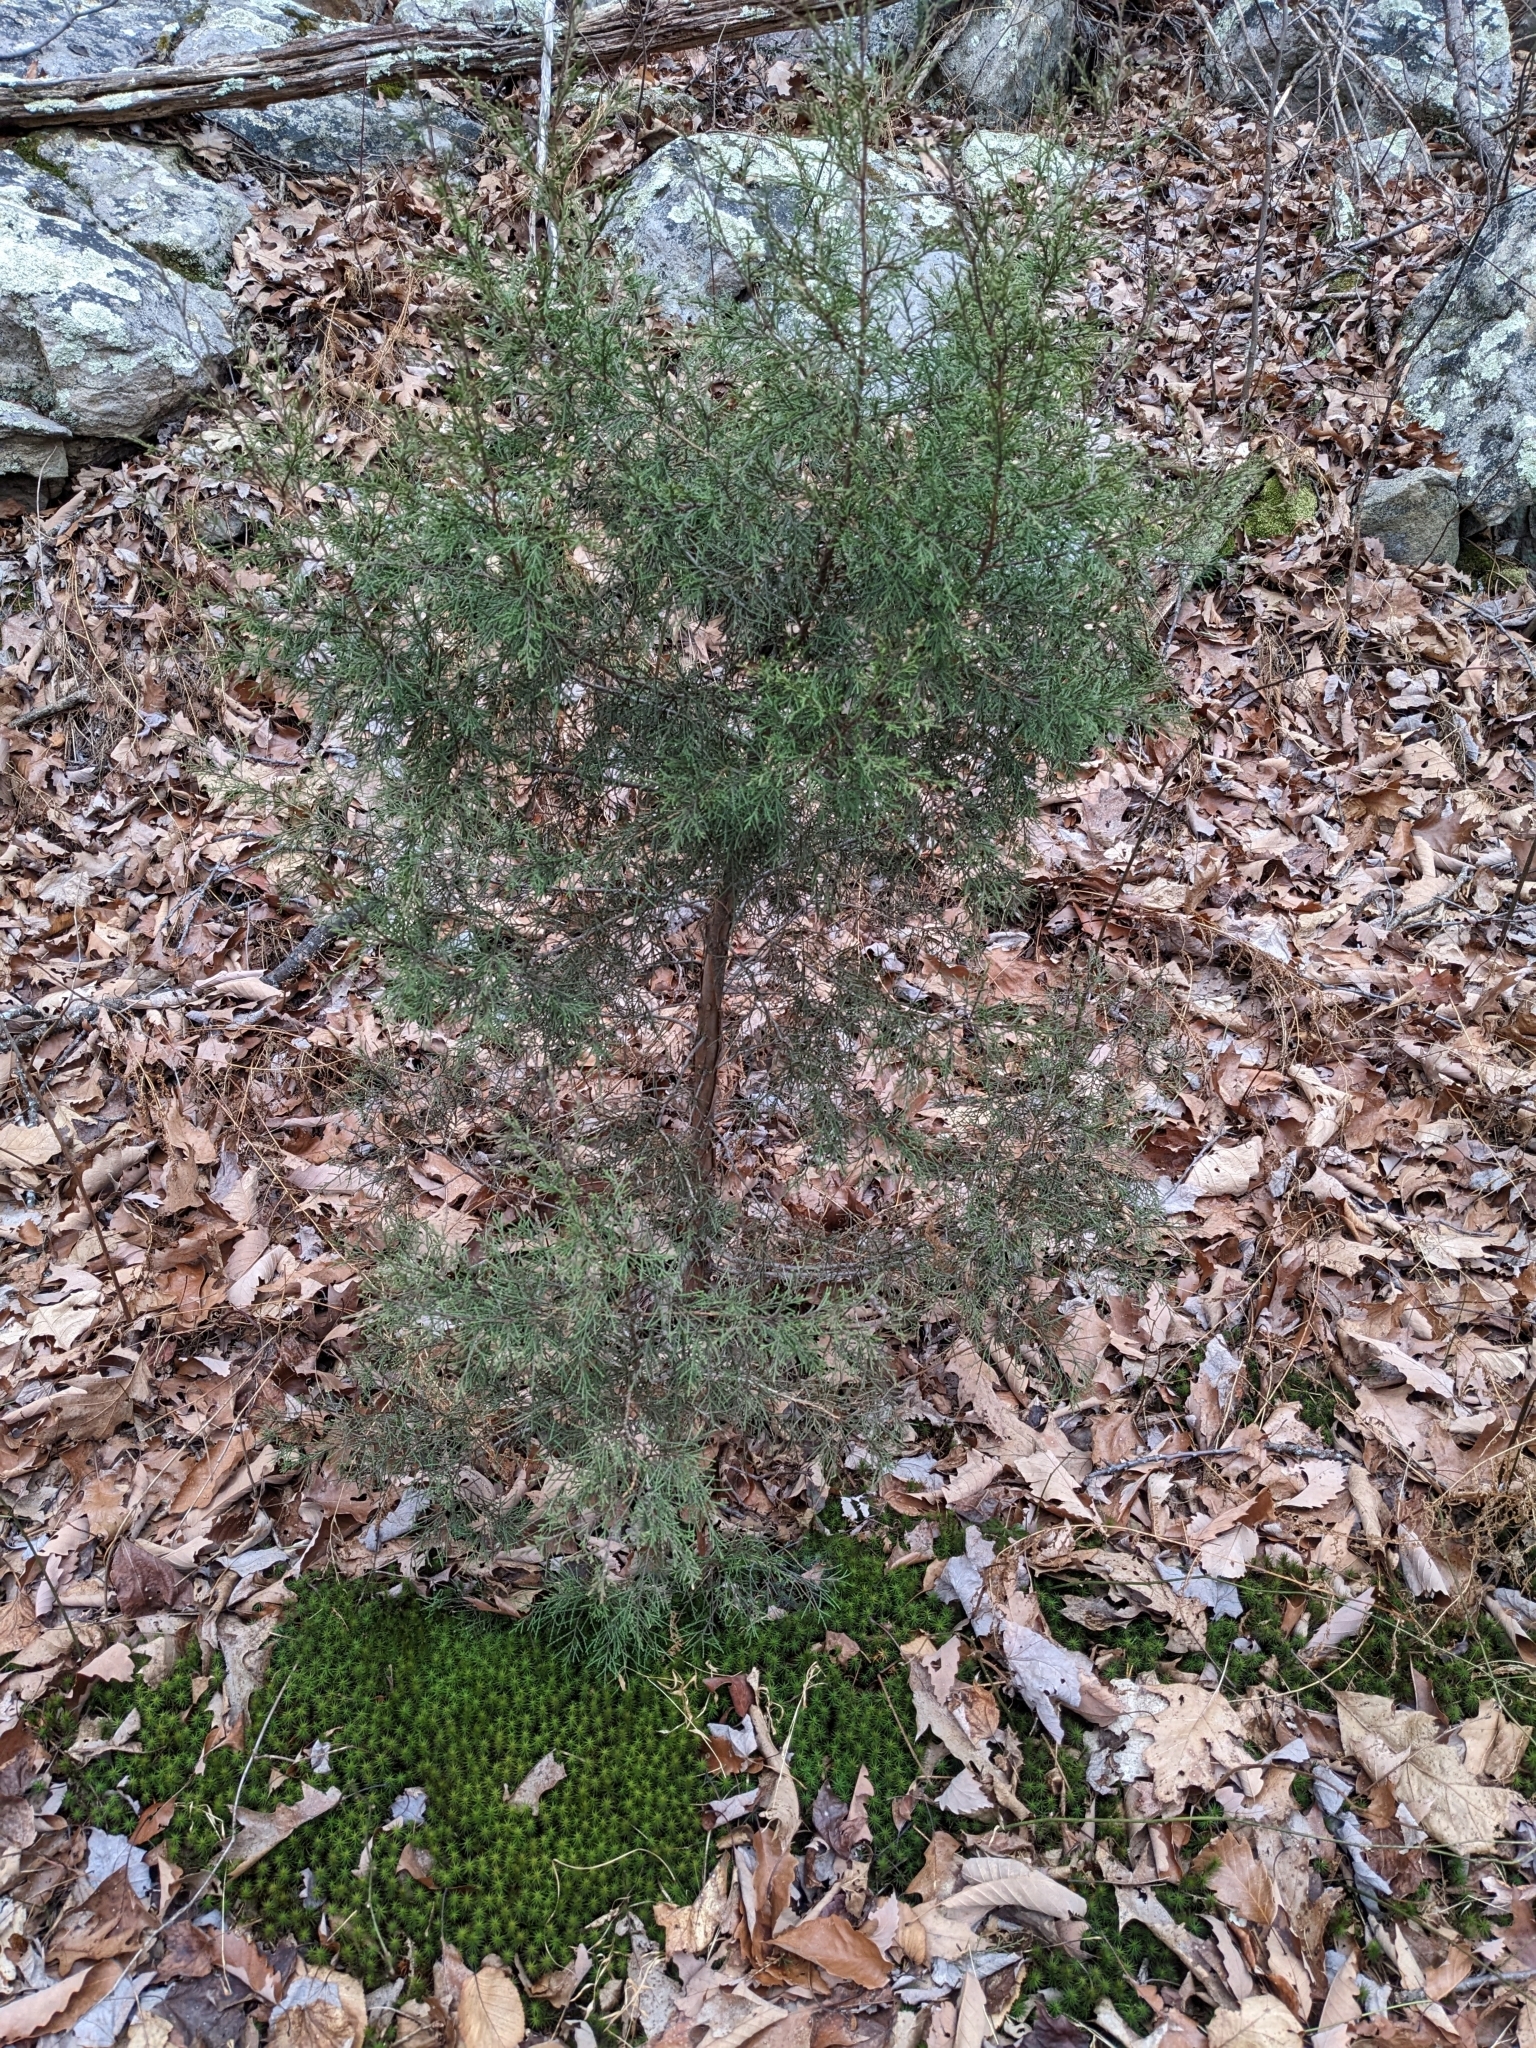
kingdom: Plantae
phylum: Tracheophyta
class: Pinopsida
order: Pinales
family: Cupressaceae
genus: Juniperus
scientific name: Juniperus virginiana
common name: Red juniper
